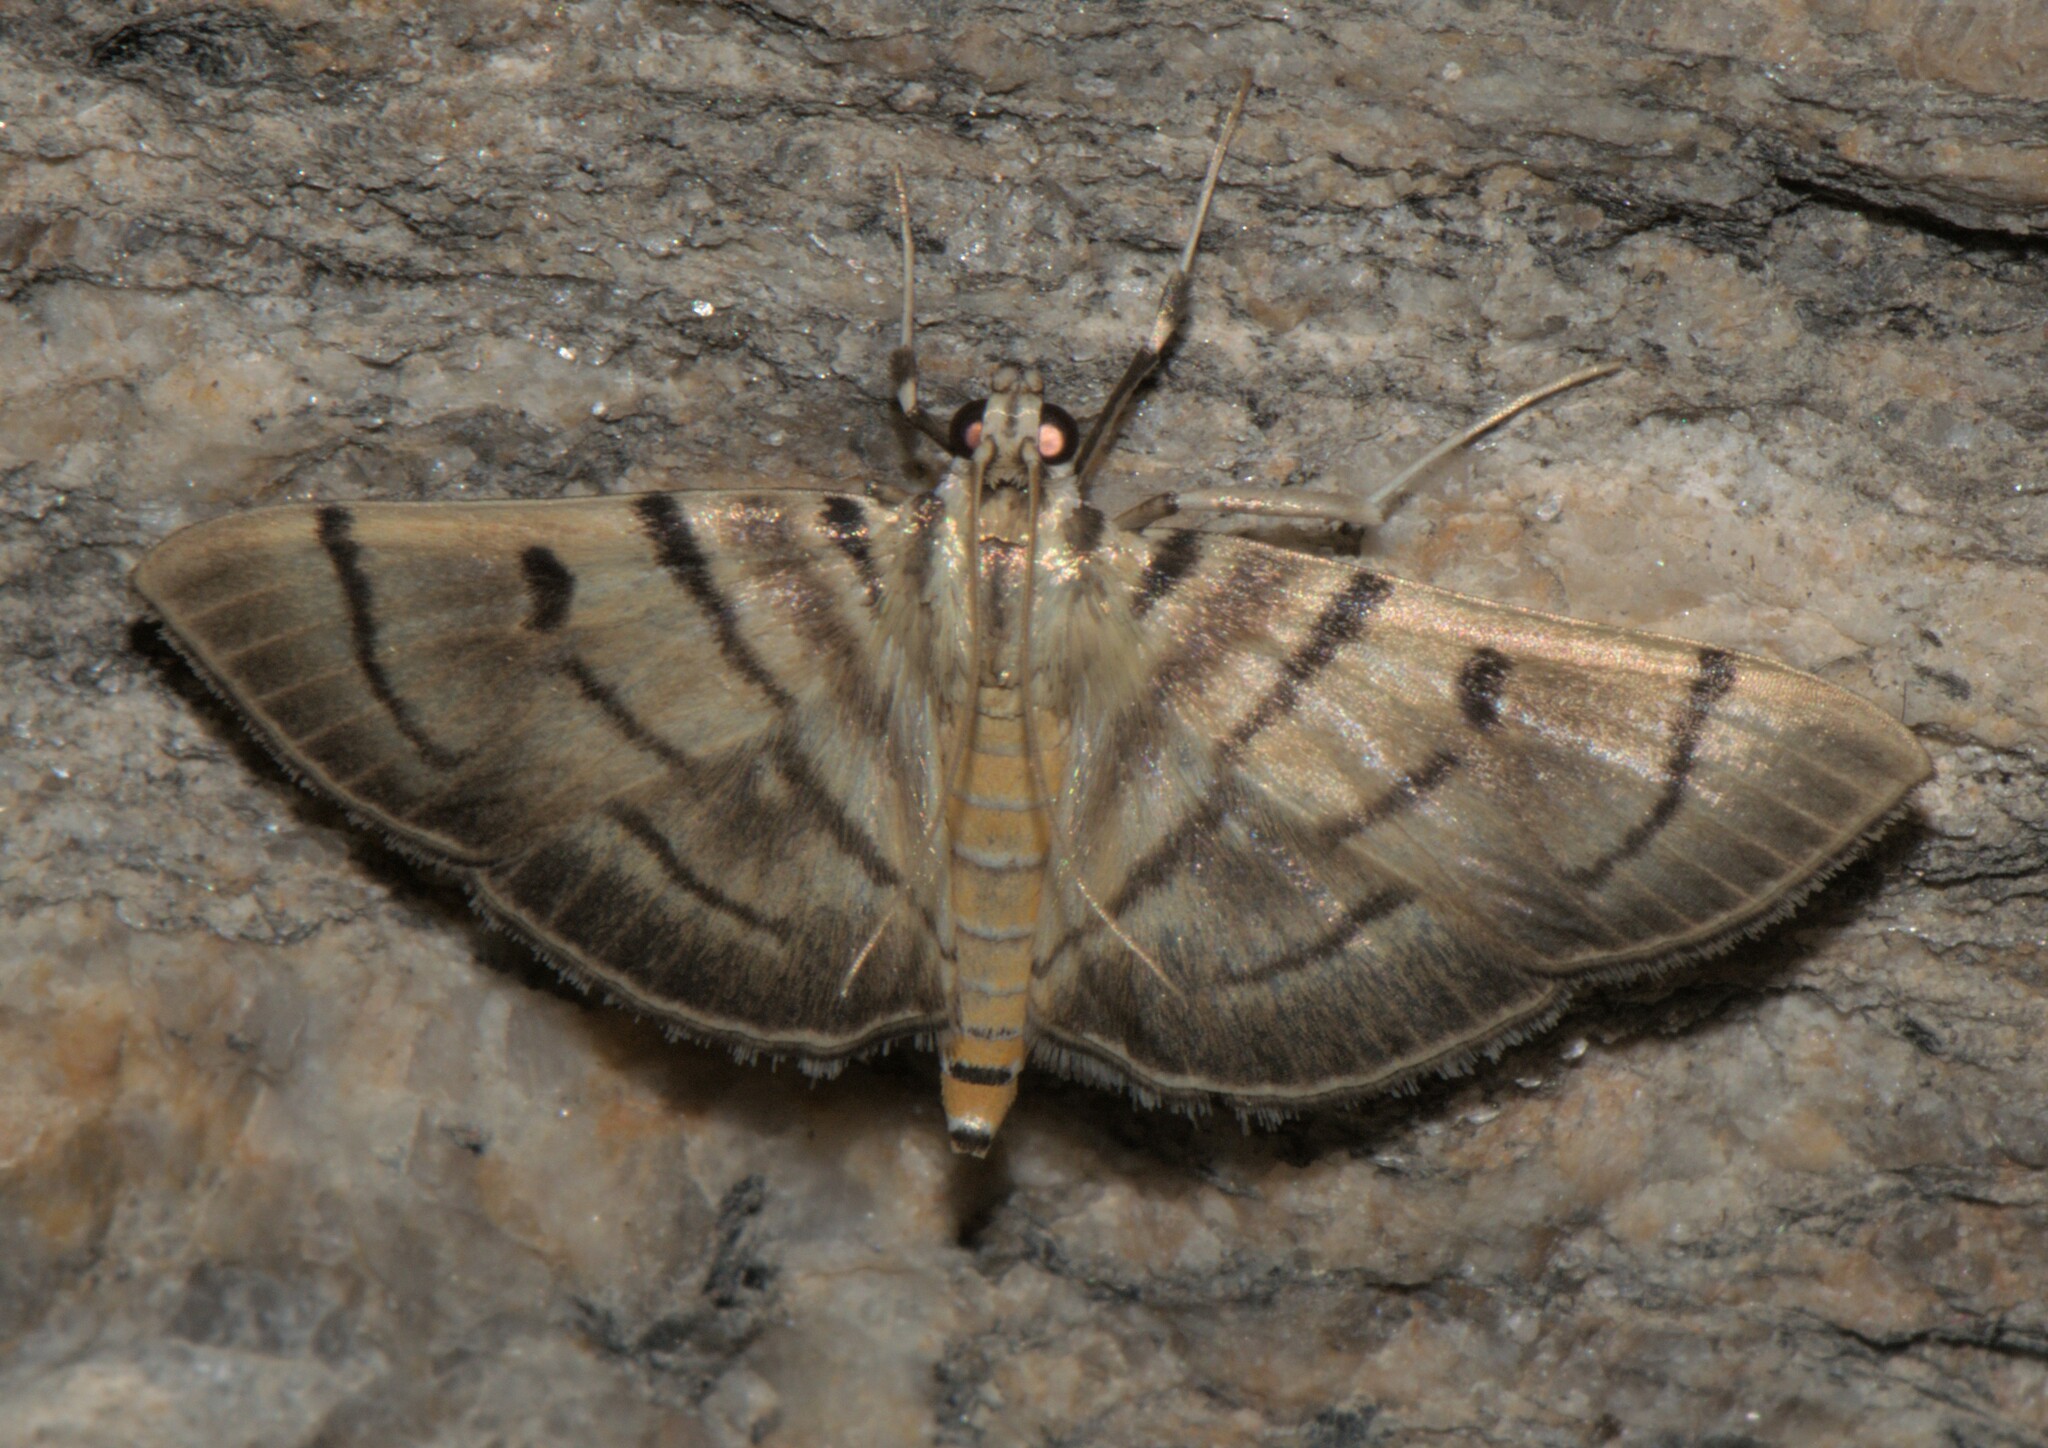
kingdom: Animalia
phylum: Arthropoda
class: Insecta
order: Lepidoptera
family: Crambidae
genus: Dichocrocis
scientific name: Dichocrocis definita
